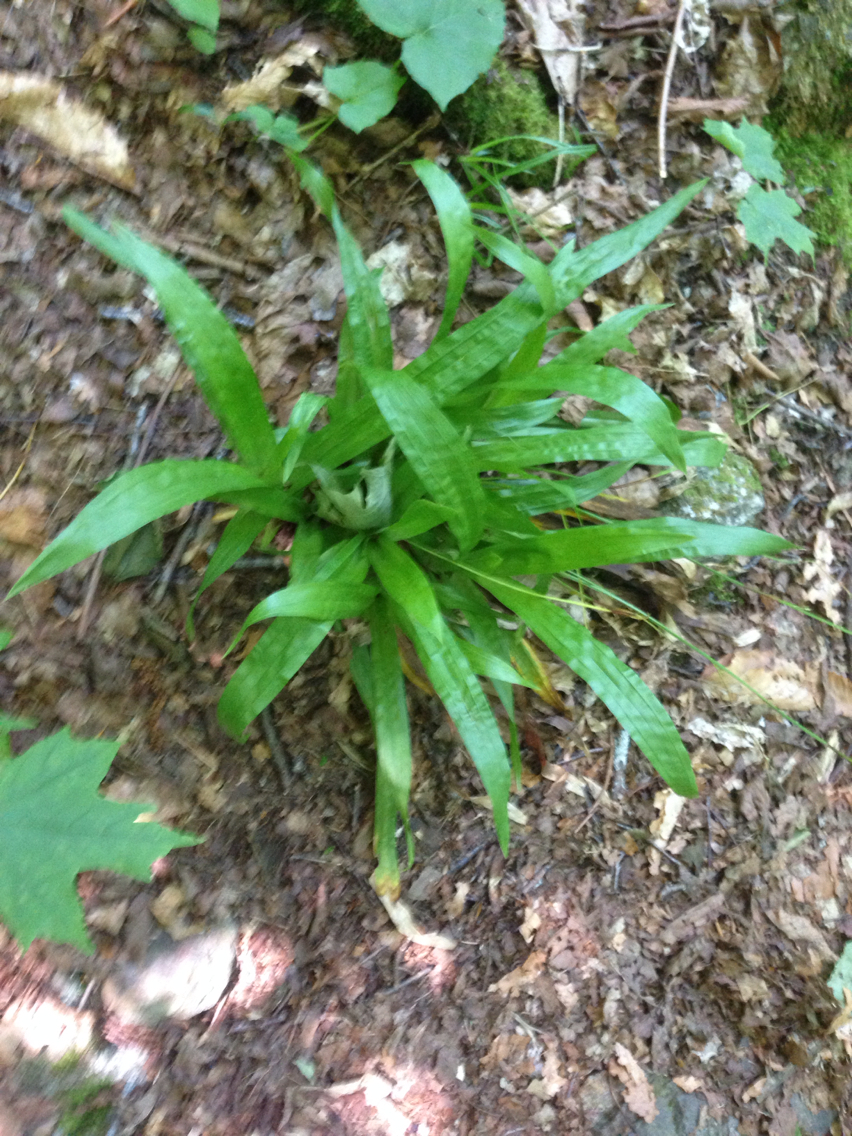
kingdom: Plantae
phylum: Tracheophyta
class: Liliopsida
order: Poales
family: Cyperaceae
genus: Carex
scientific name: Carex plantaginea
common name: Plantain-leaved sedge
